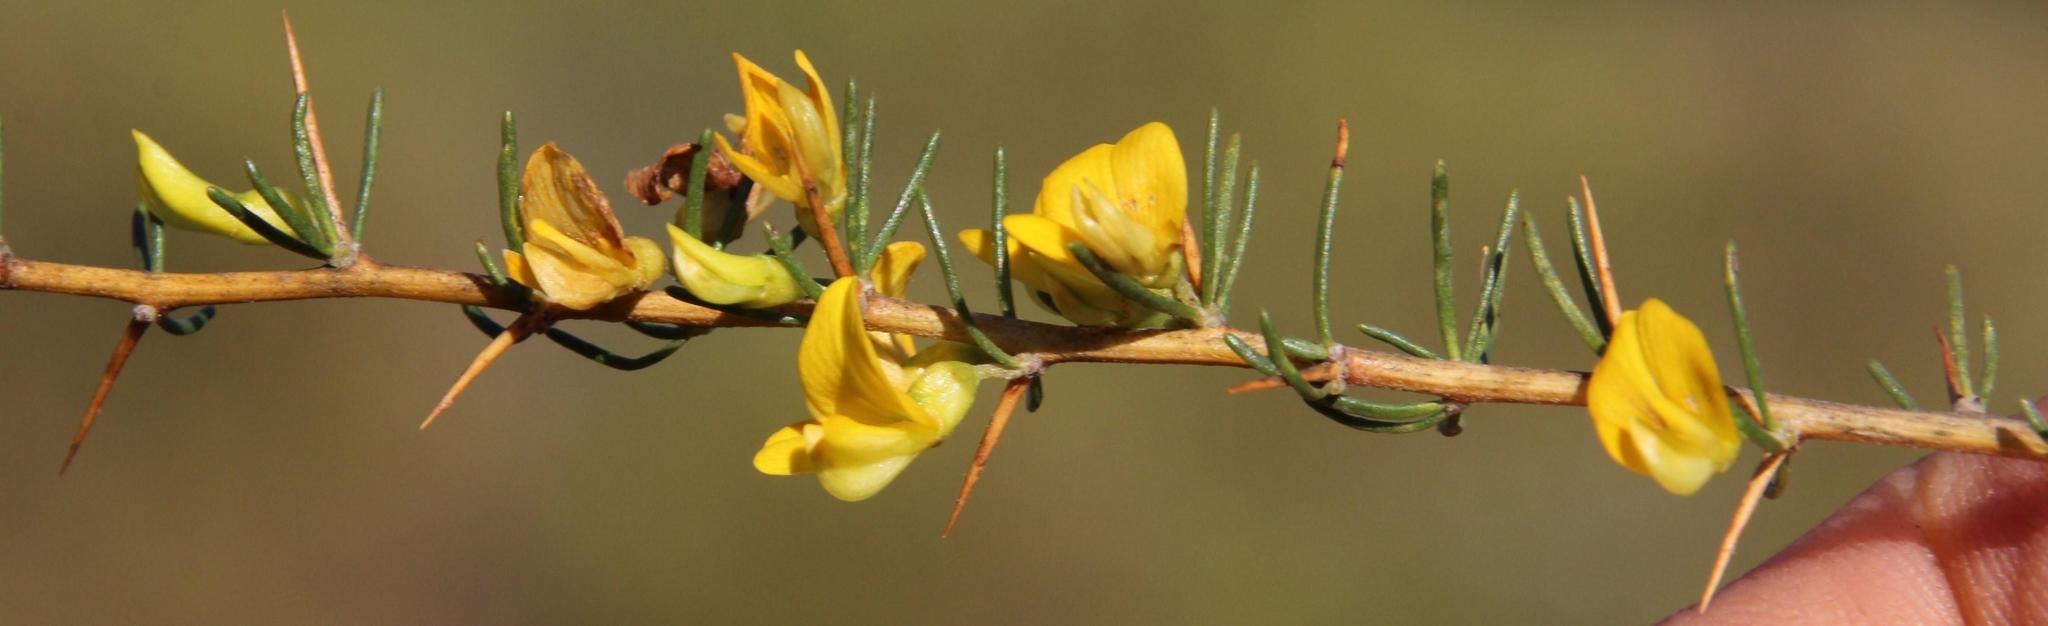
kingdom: Plantae
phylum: Tracheophyta
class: Magnoliopsida
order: Fabales
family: Fabaceae
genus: Aspalathus
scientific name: Aspalathus spinosa
